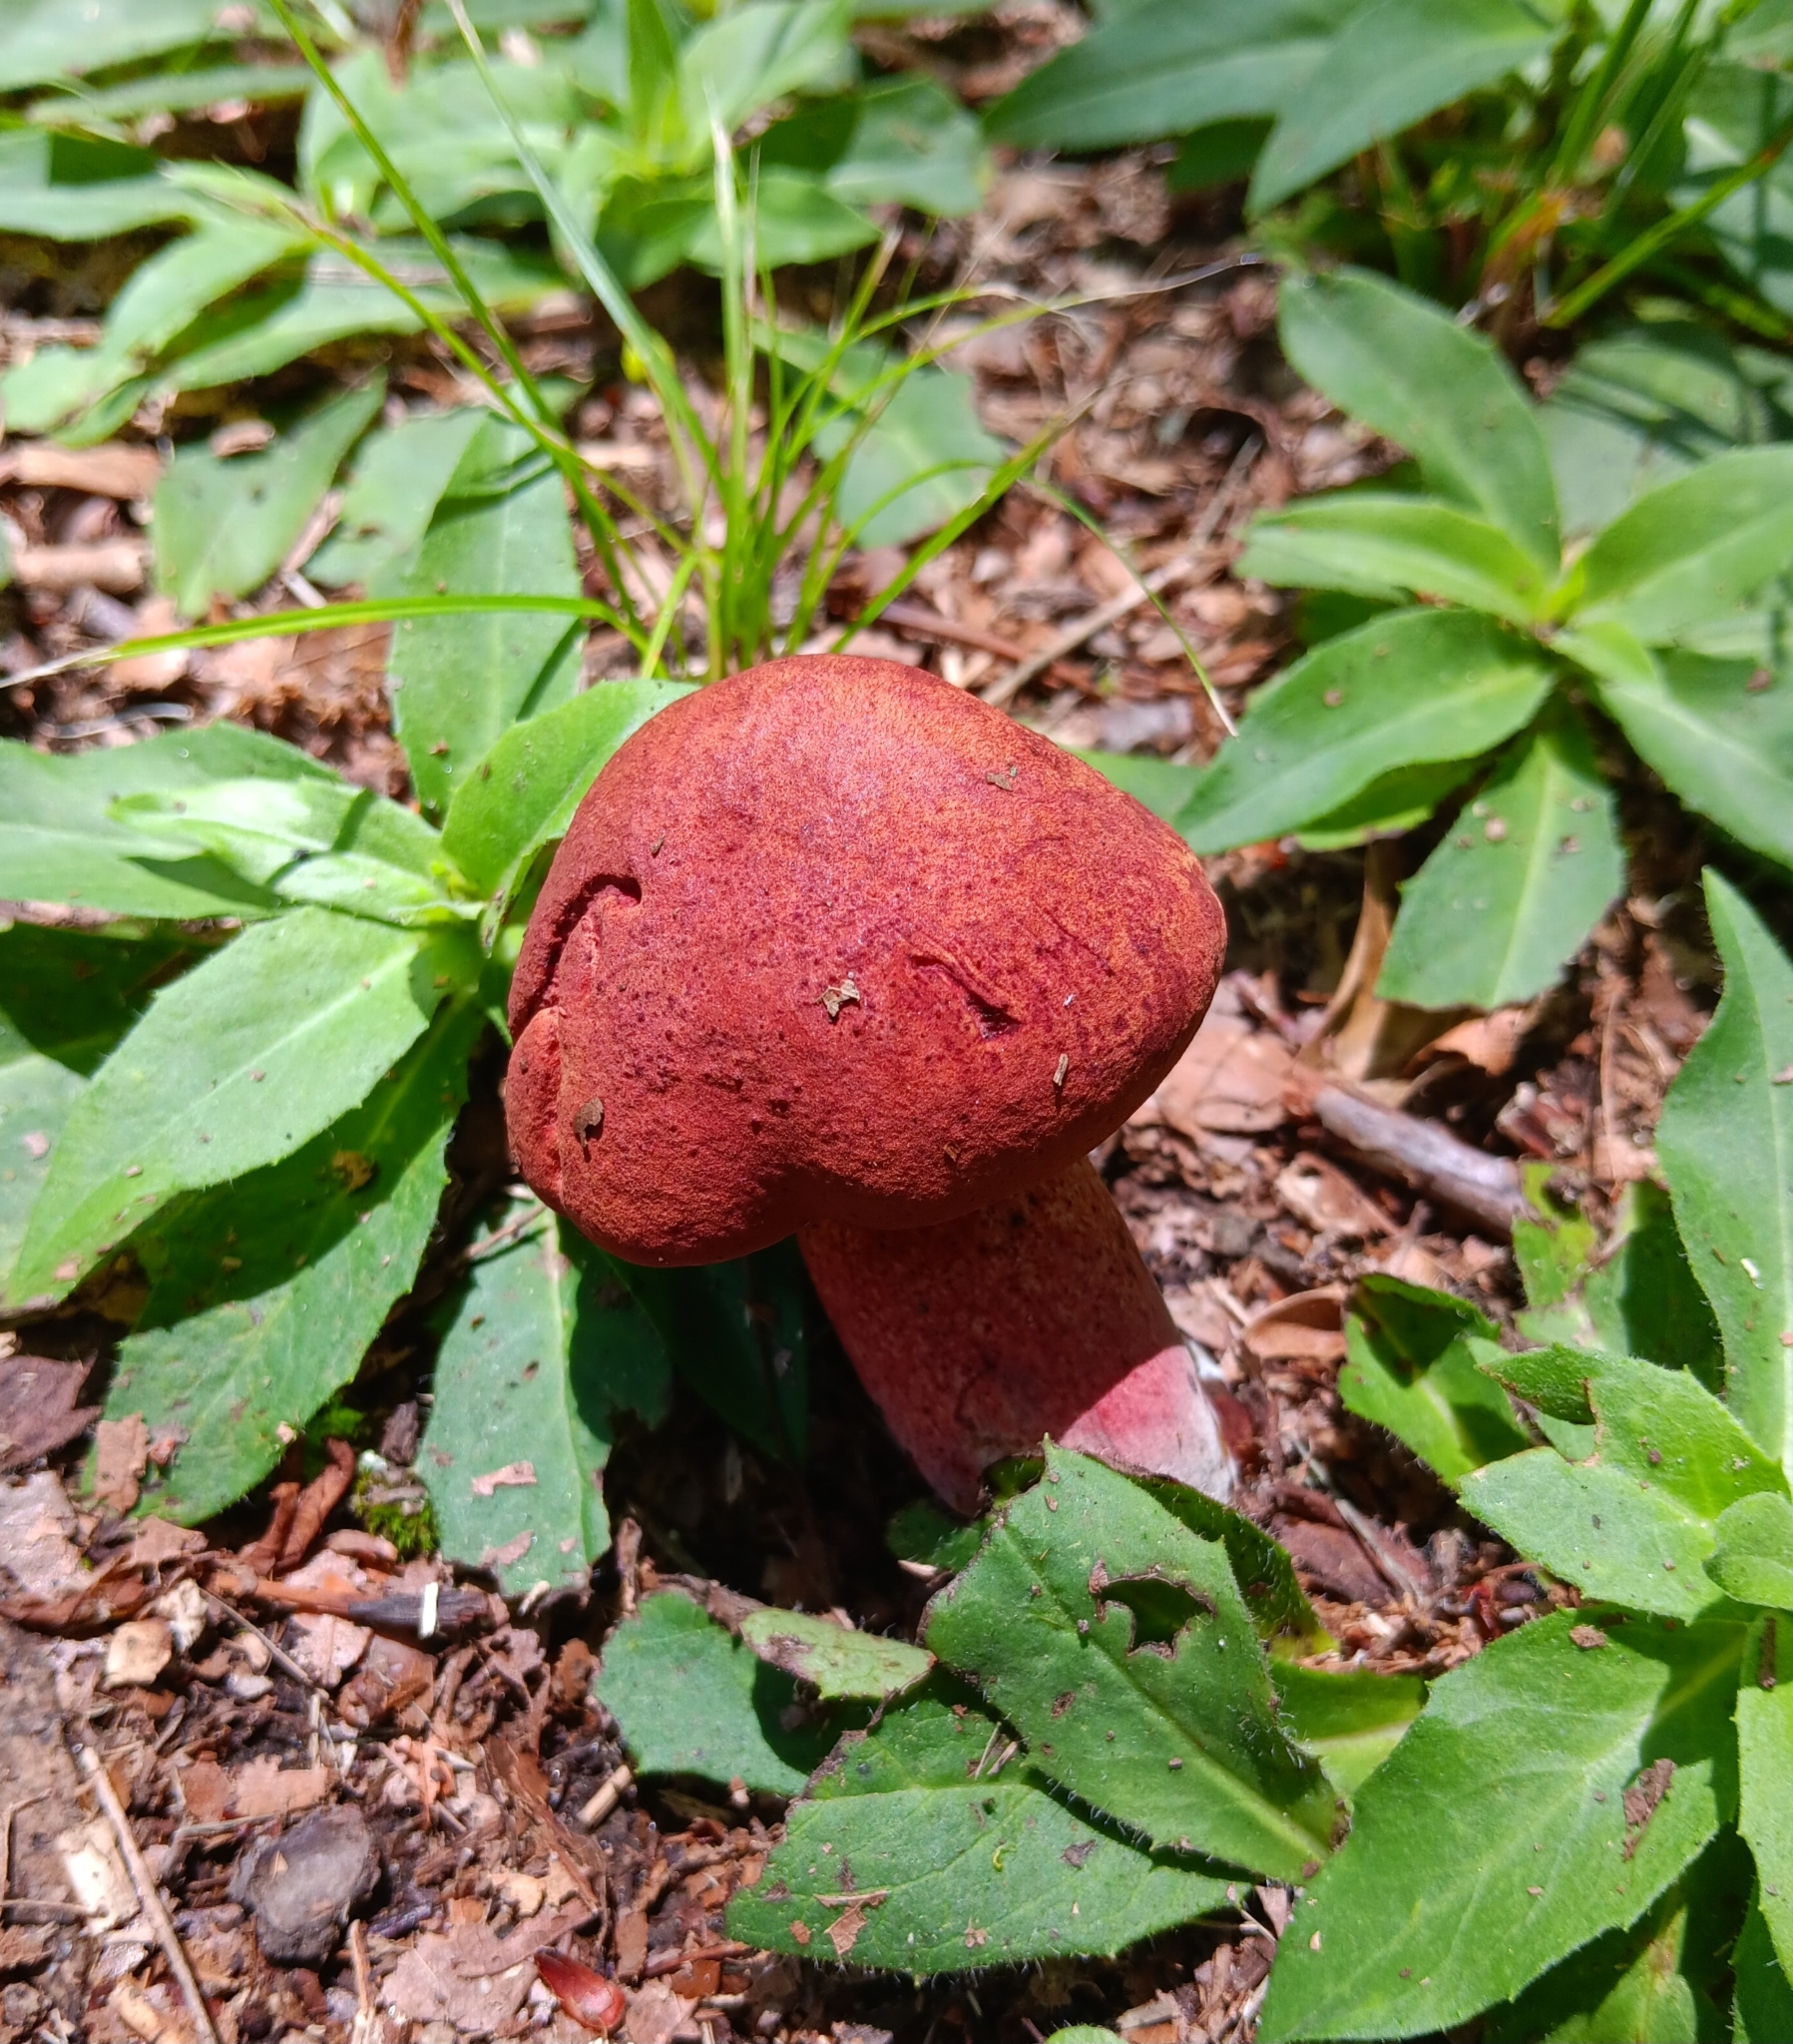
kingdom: Fungi
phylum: Basidiomycota
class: Agaricomycetes
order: Boletales
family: Boletaceae
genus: Baorangia
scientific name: Baorangia bicolor
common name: Two-colored bolete
